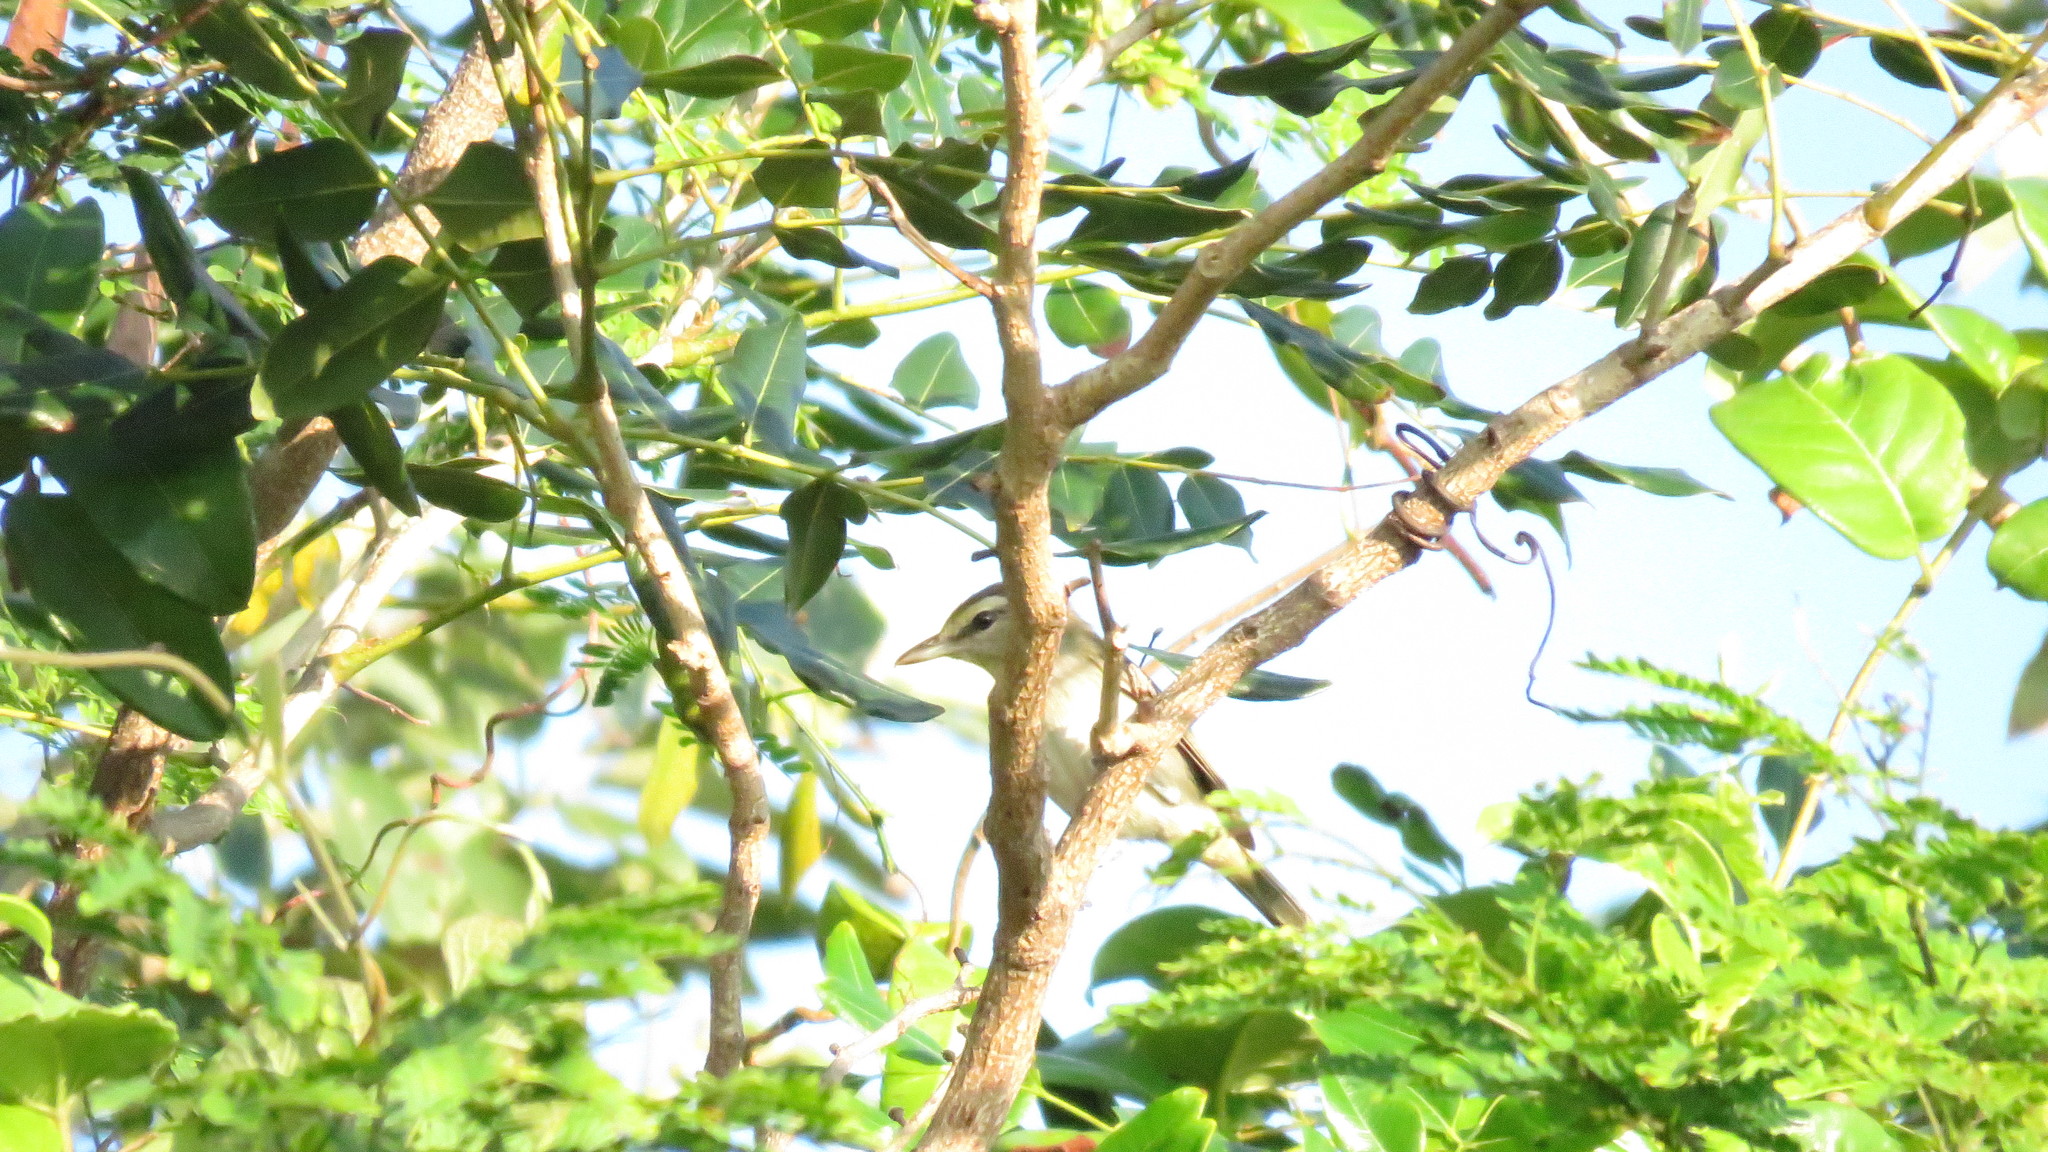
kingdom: Animalia
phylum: Chordata
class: Aves
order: Passeriformes
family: Vireonidae
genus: Vireo
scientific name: Vireo magister
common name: Yucatan vireo
